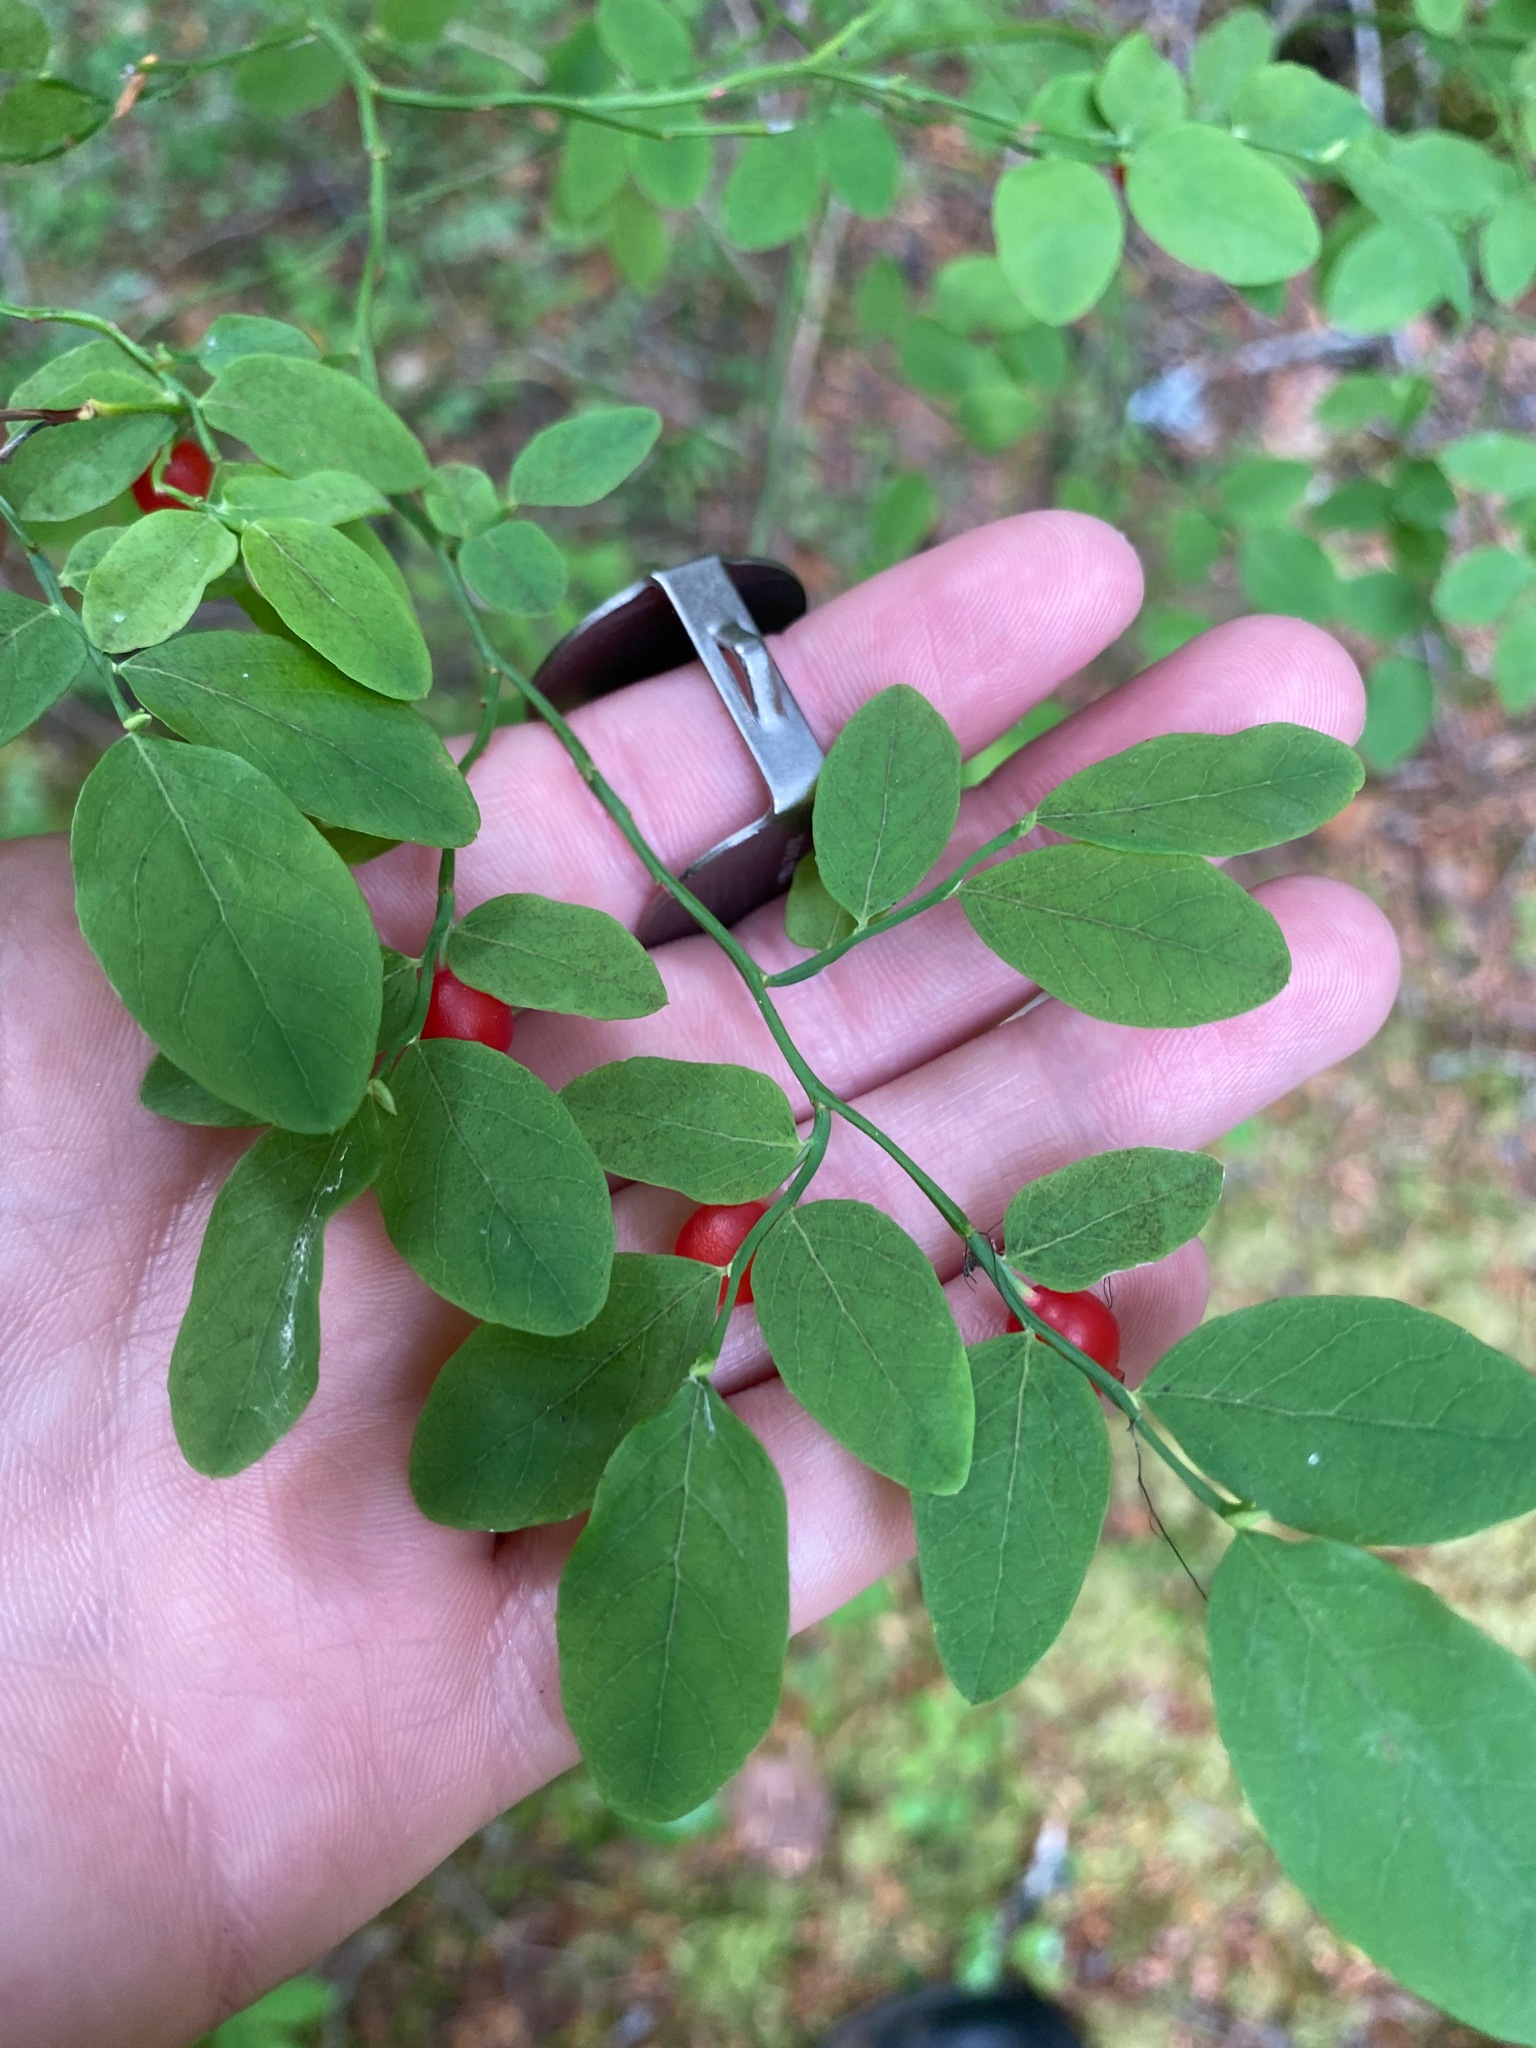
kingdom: Plantae
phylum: Tracheophyta
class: Magnoliopsida
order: Ericales
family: Ericaceae
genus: Vaccinium
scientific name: Vaccinium parvifolium
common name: Red-huckleberry
